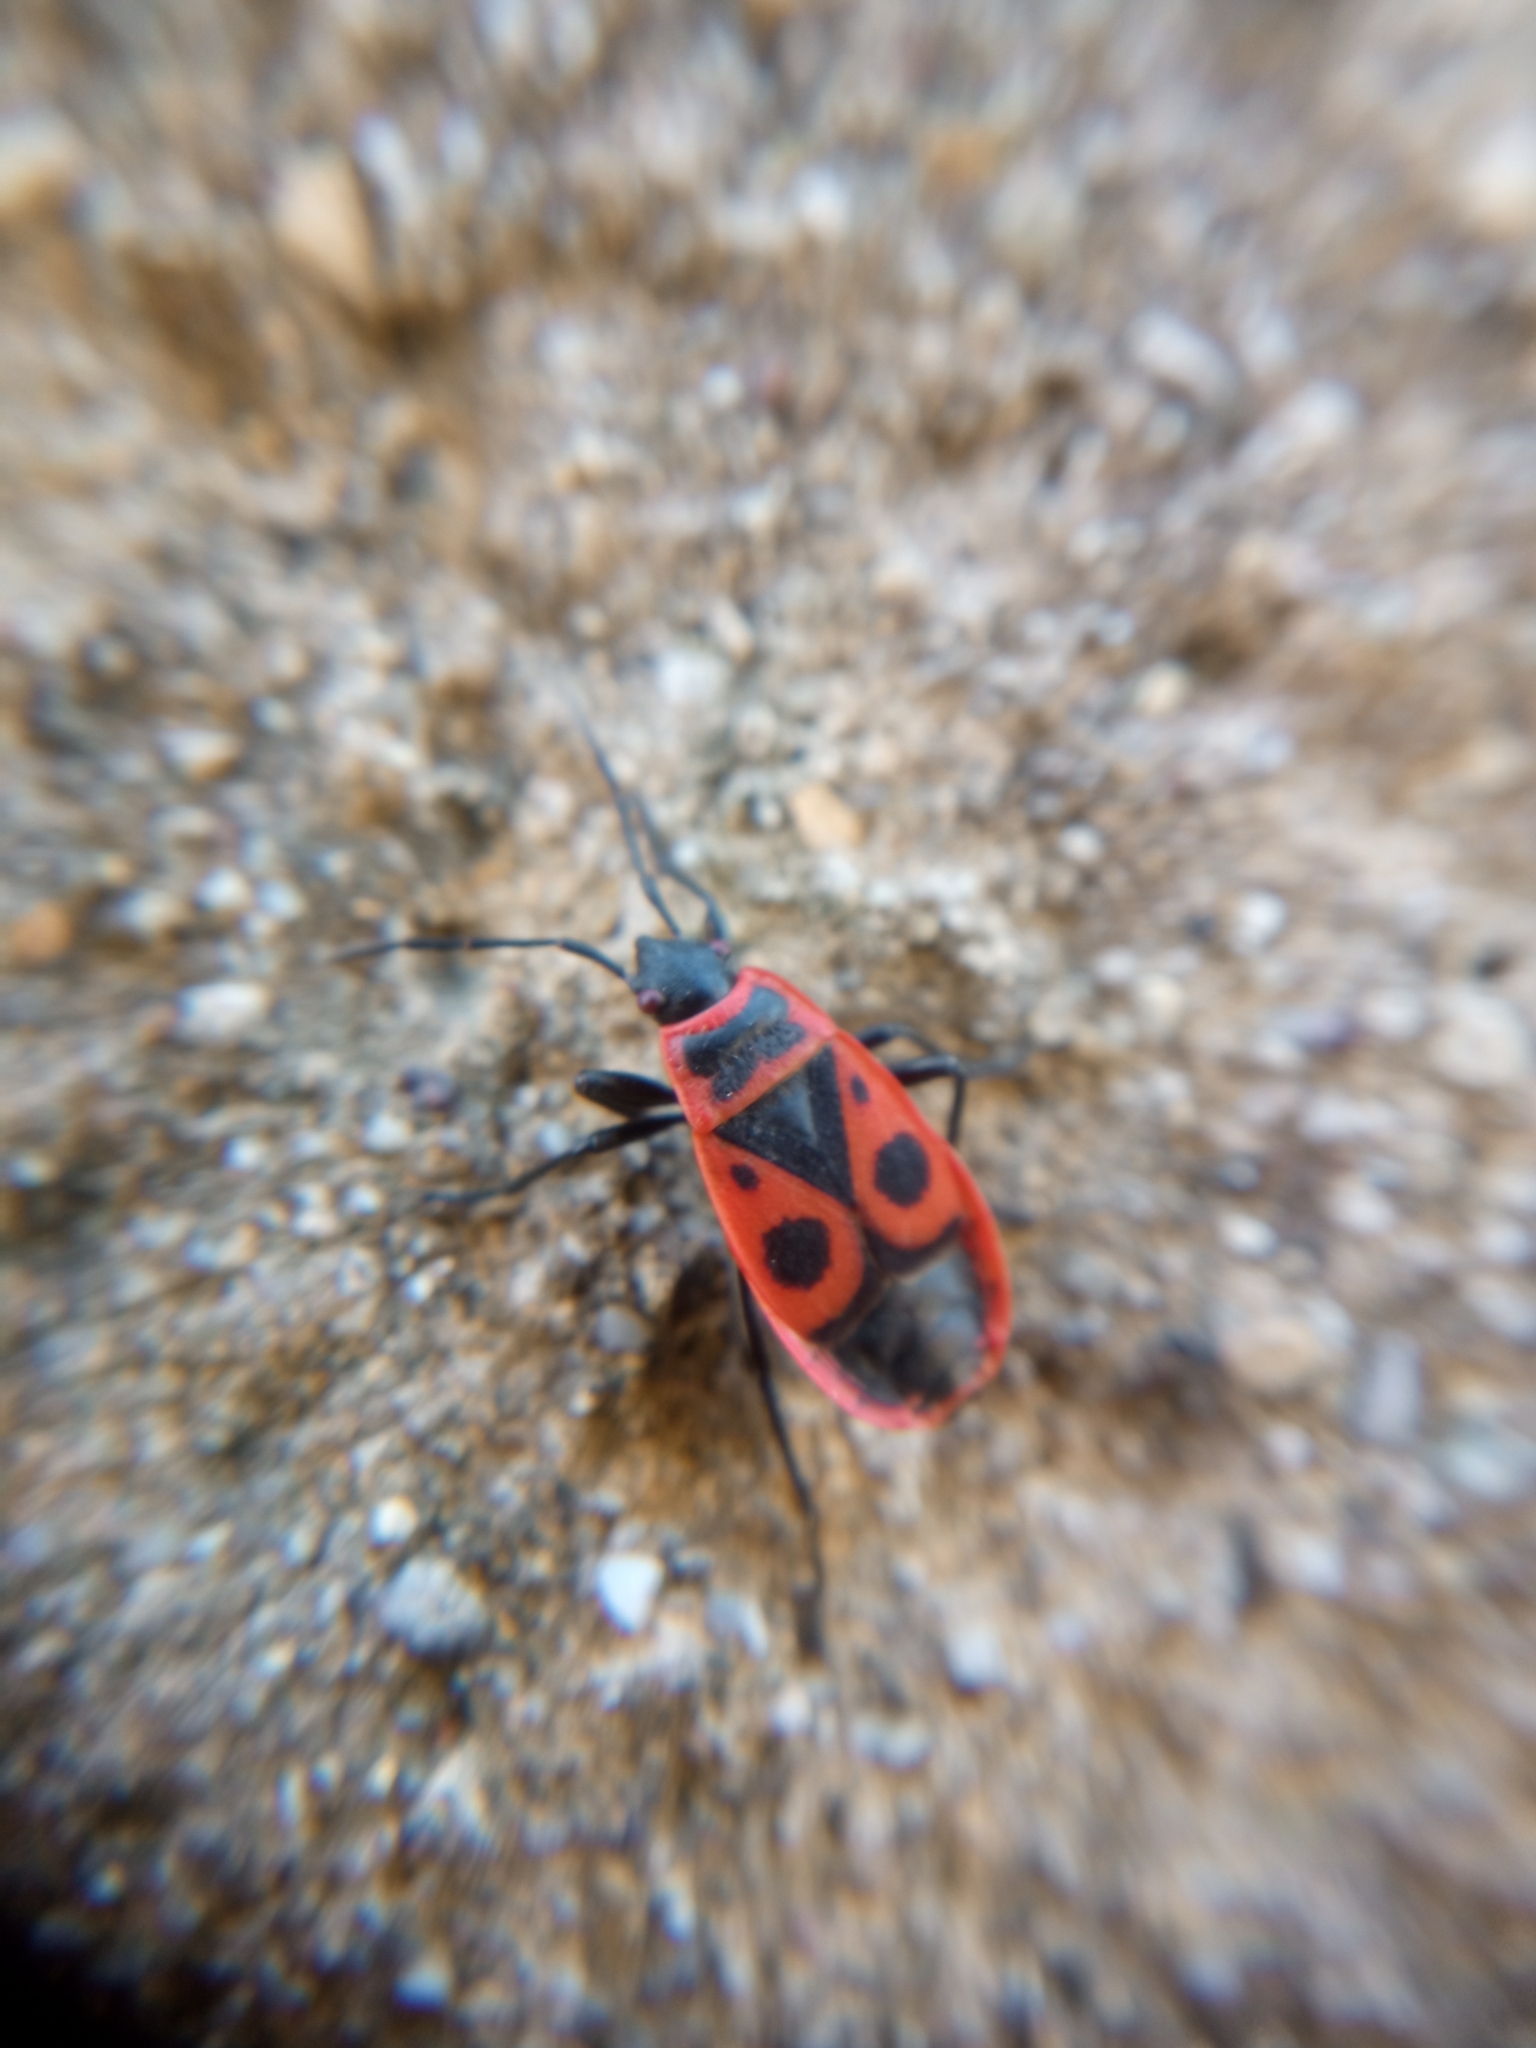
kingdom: Animalia
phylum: Arthropoda
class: Insecta
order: Hemiptera
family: Pyrrhocoridae
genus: Pyrrhocoris
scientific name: Pyrrhocoris apterus
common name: Firebug
